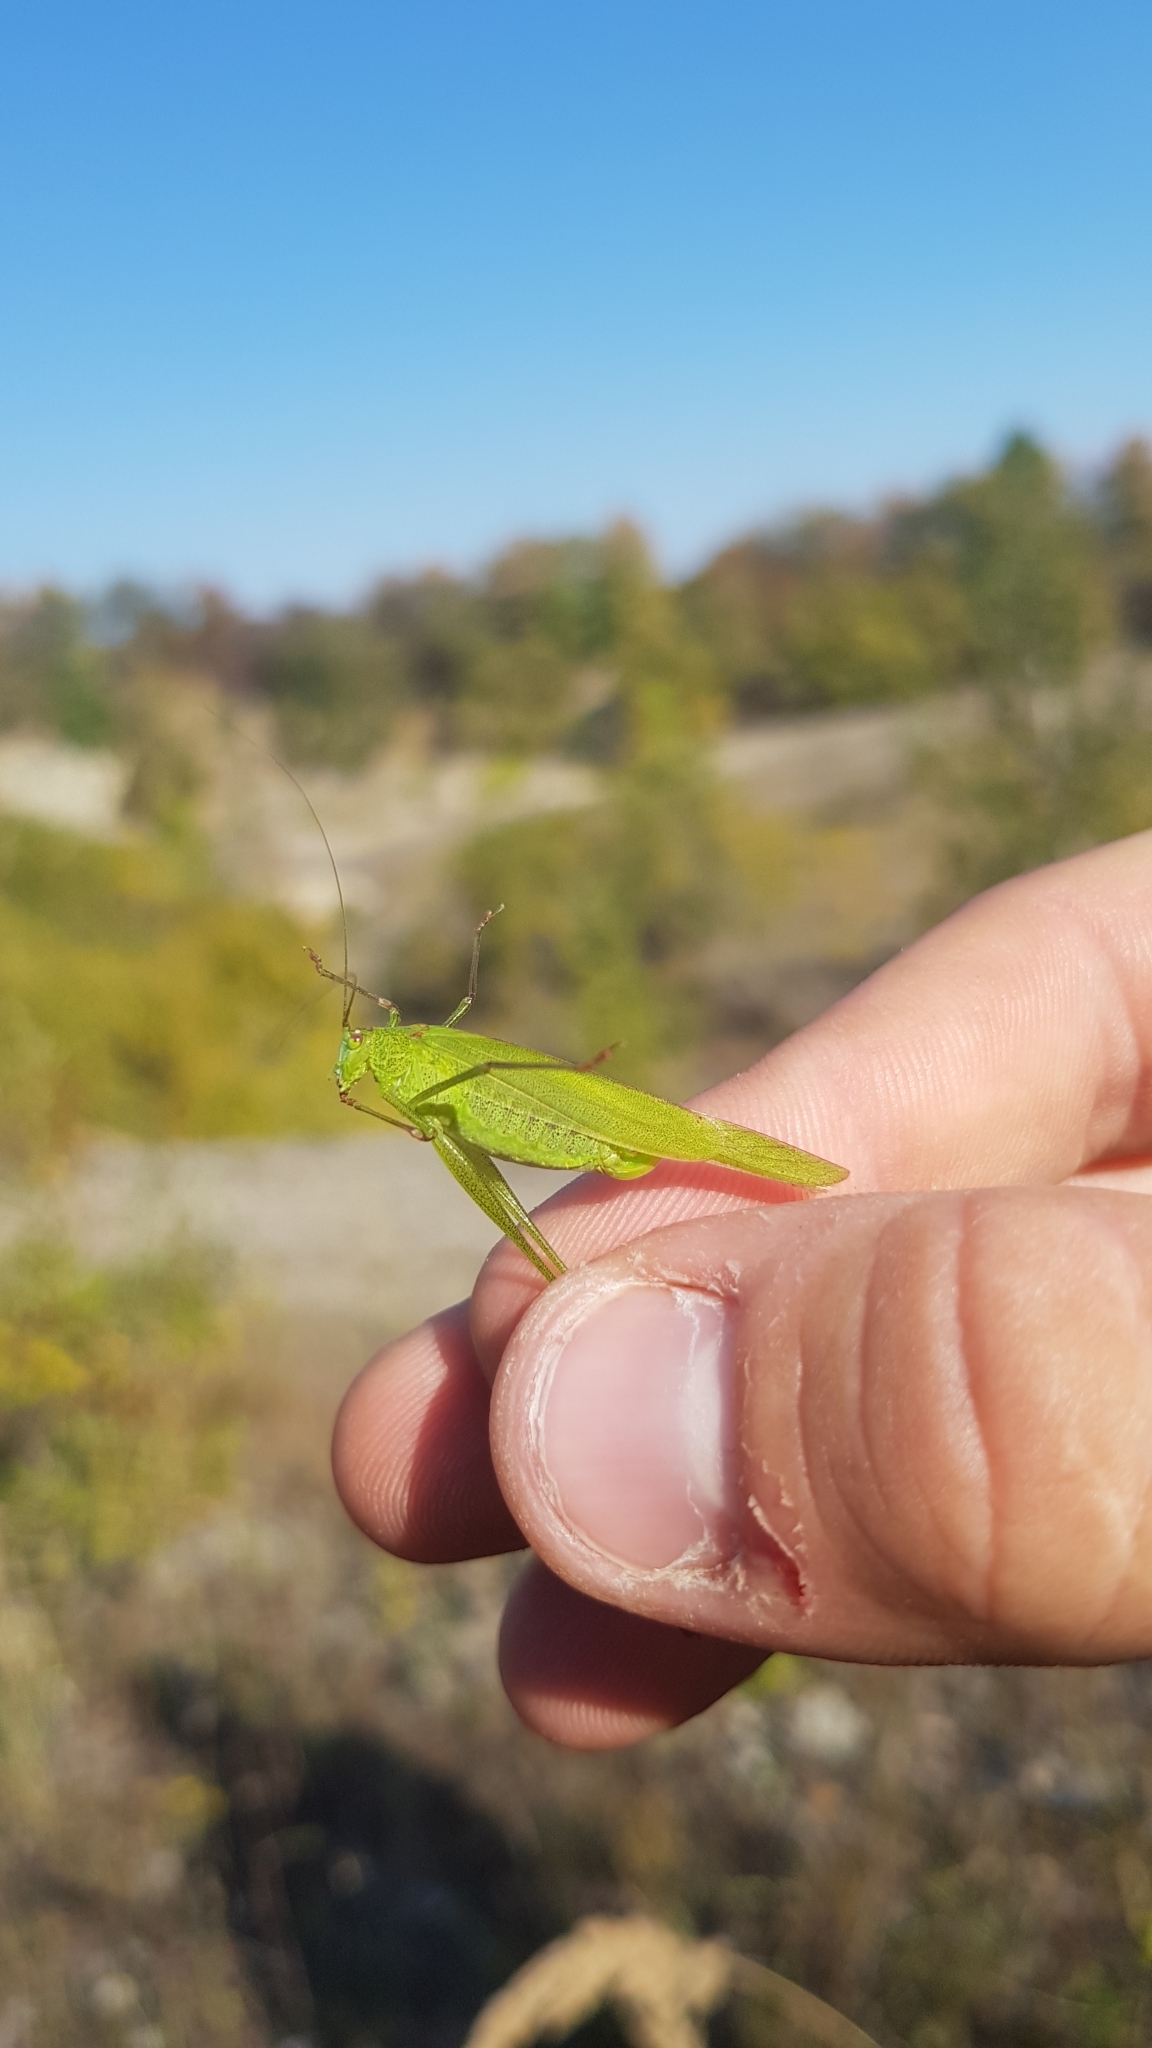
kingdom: Animalia
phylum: Arthropoda
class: Insecta
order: Orthoptera
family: Tettigoniidae
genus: Phaneroptera
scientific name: Phaneroptera falcata
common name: Sickle-bearing bush-cricket
